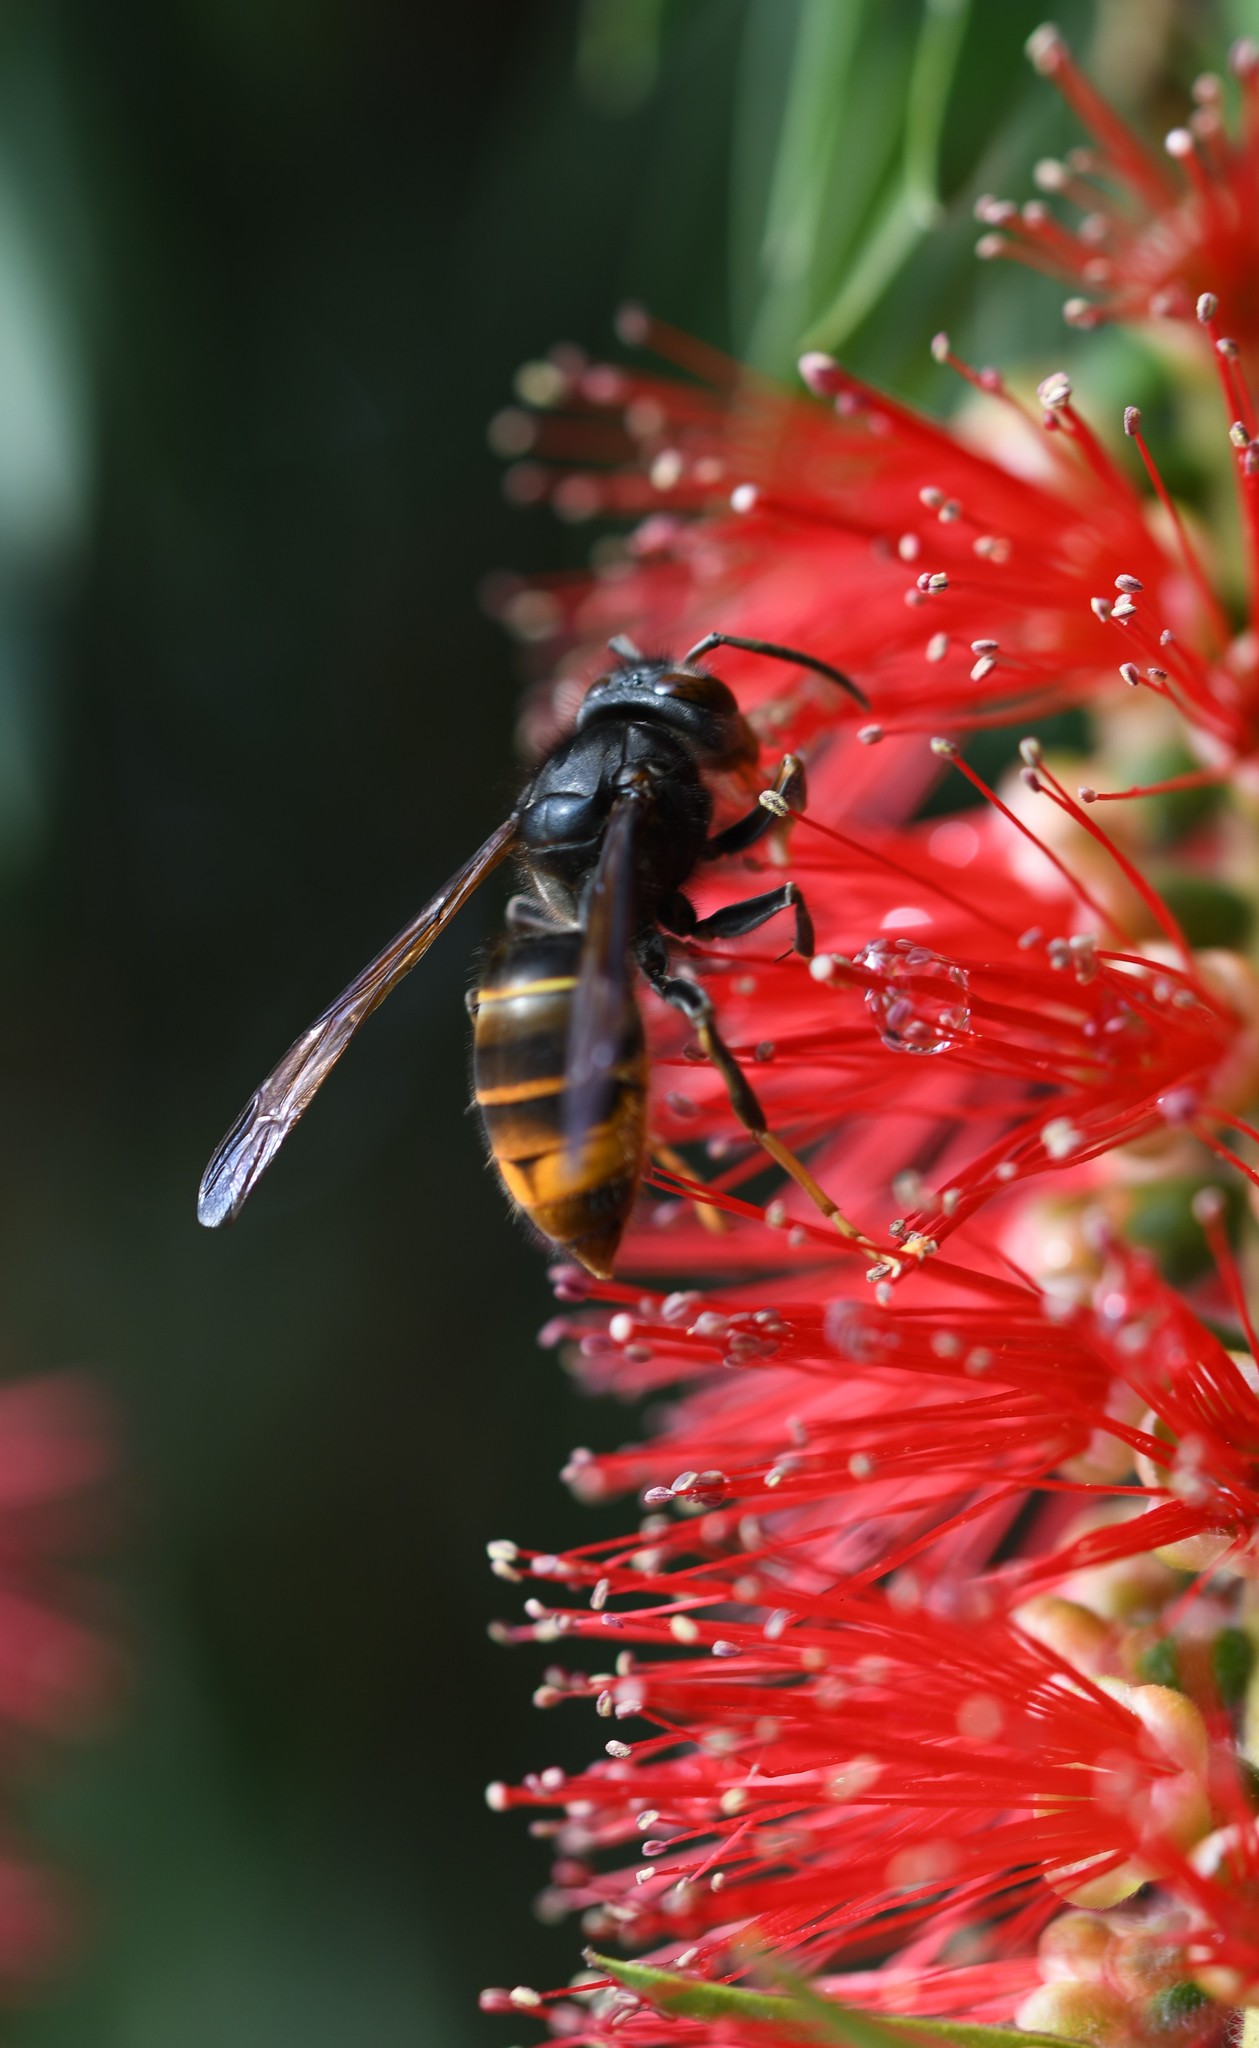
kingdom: Animalia
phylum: Arthropoda
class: Insecta
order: Hymenoptera
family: Vespidae
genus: Vespa
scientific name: Vespa velutina
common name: Asian hornet
